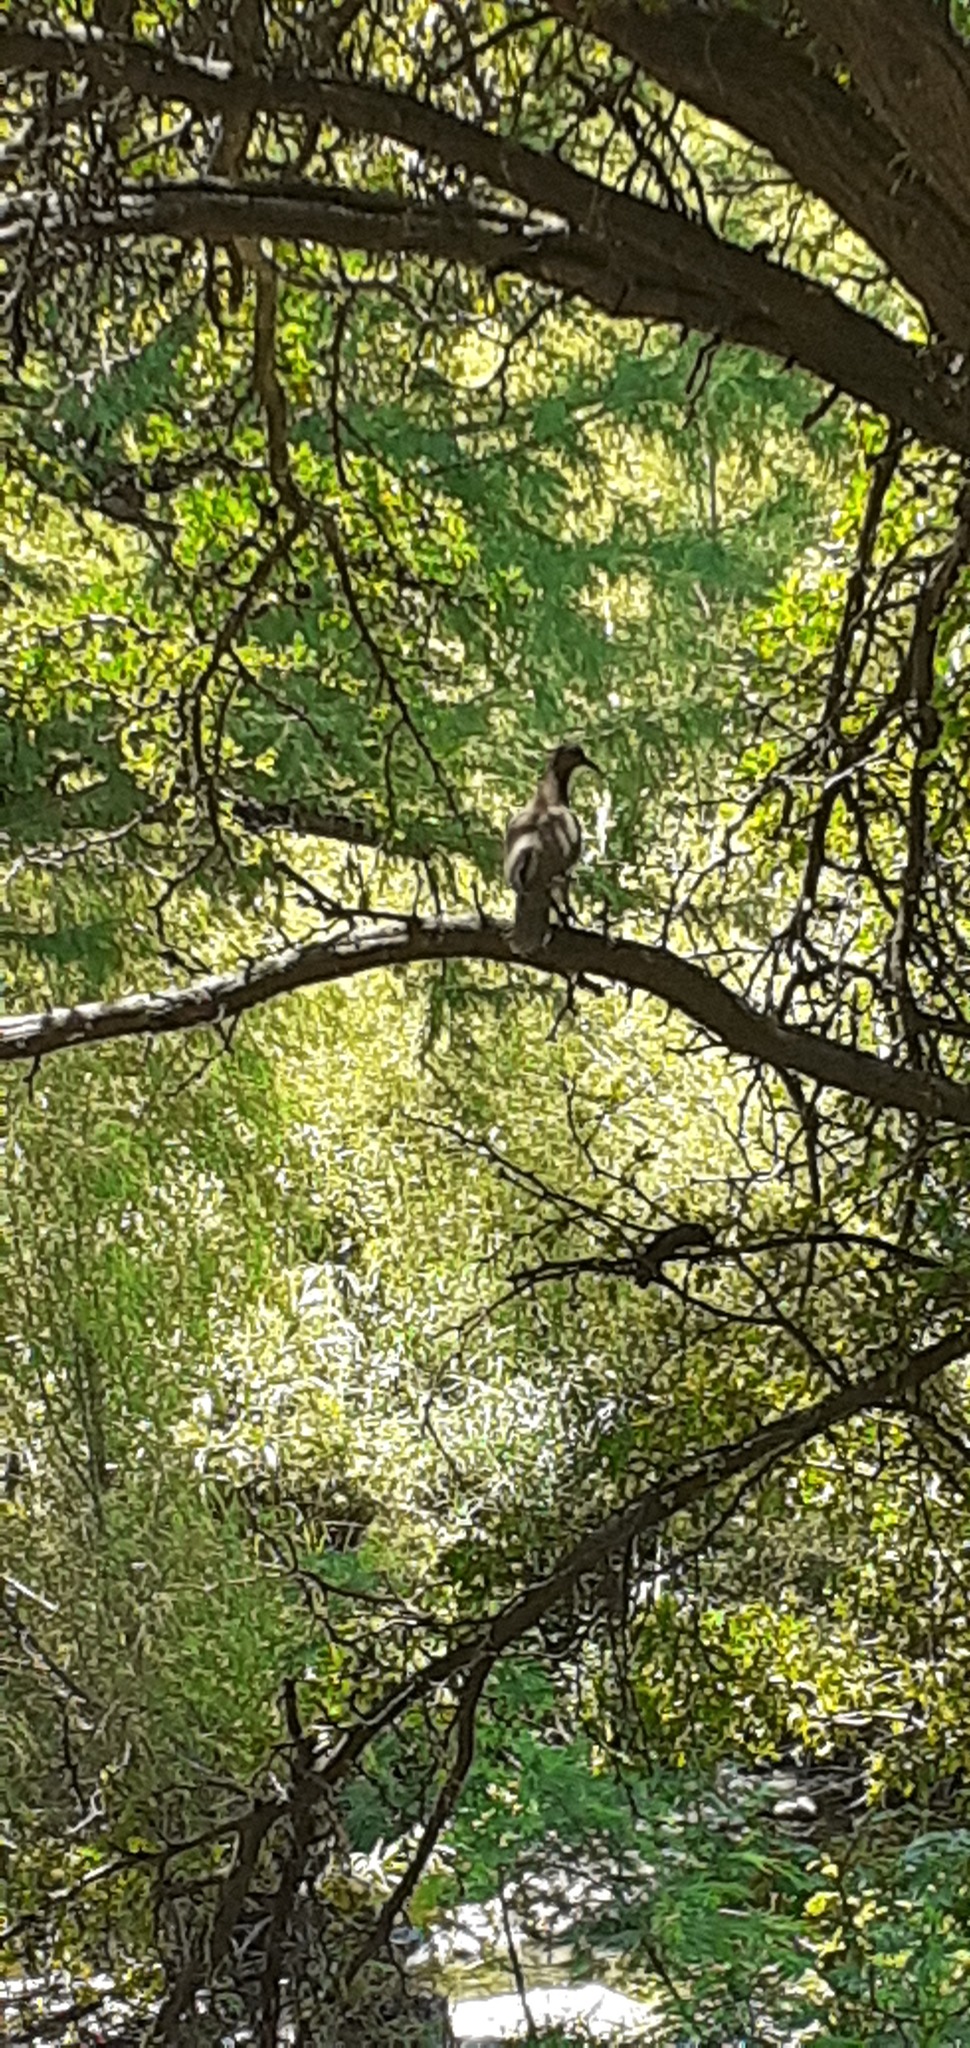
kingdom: Animalia
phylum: Chordata
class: Aves
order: Galliformes
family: Cracidae
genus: Ortalis
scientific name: Ortalis vetula
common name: Plain chachalaca
